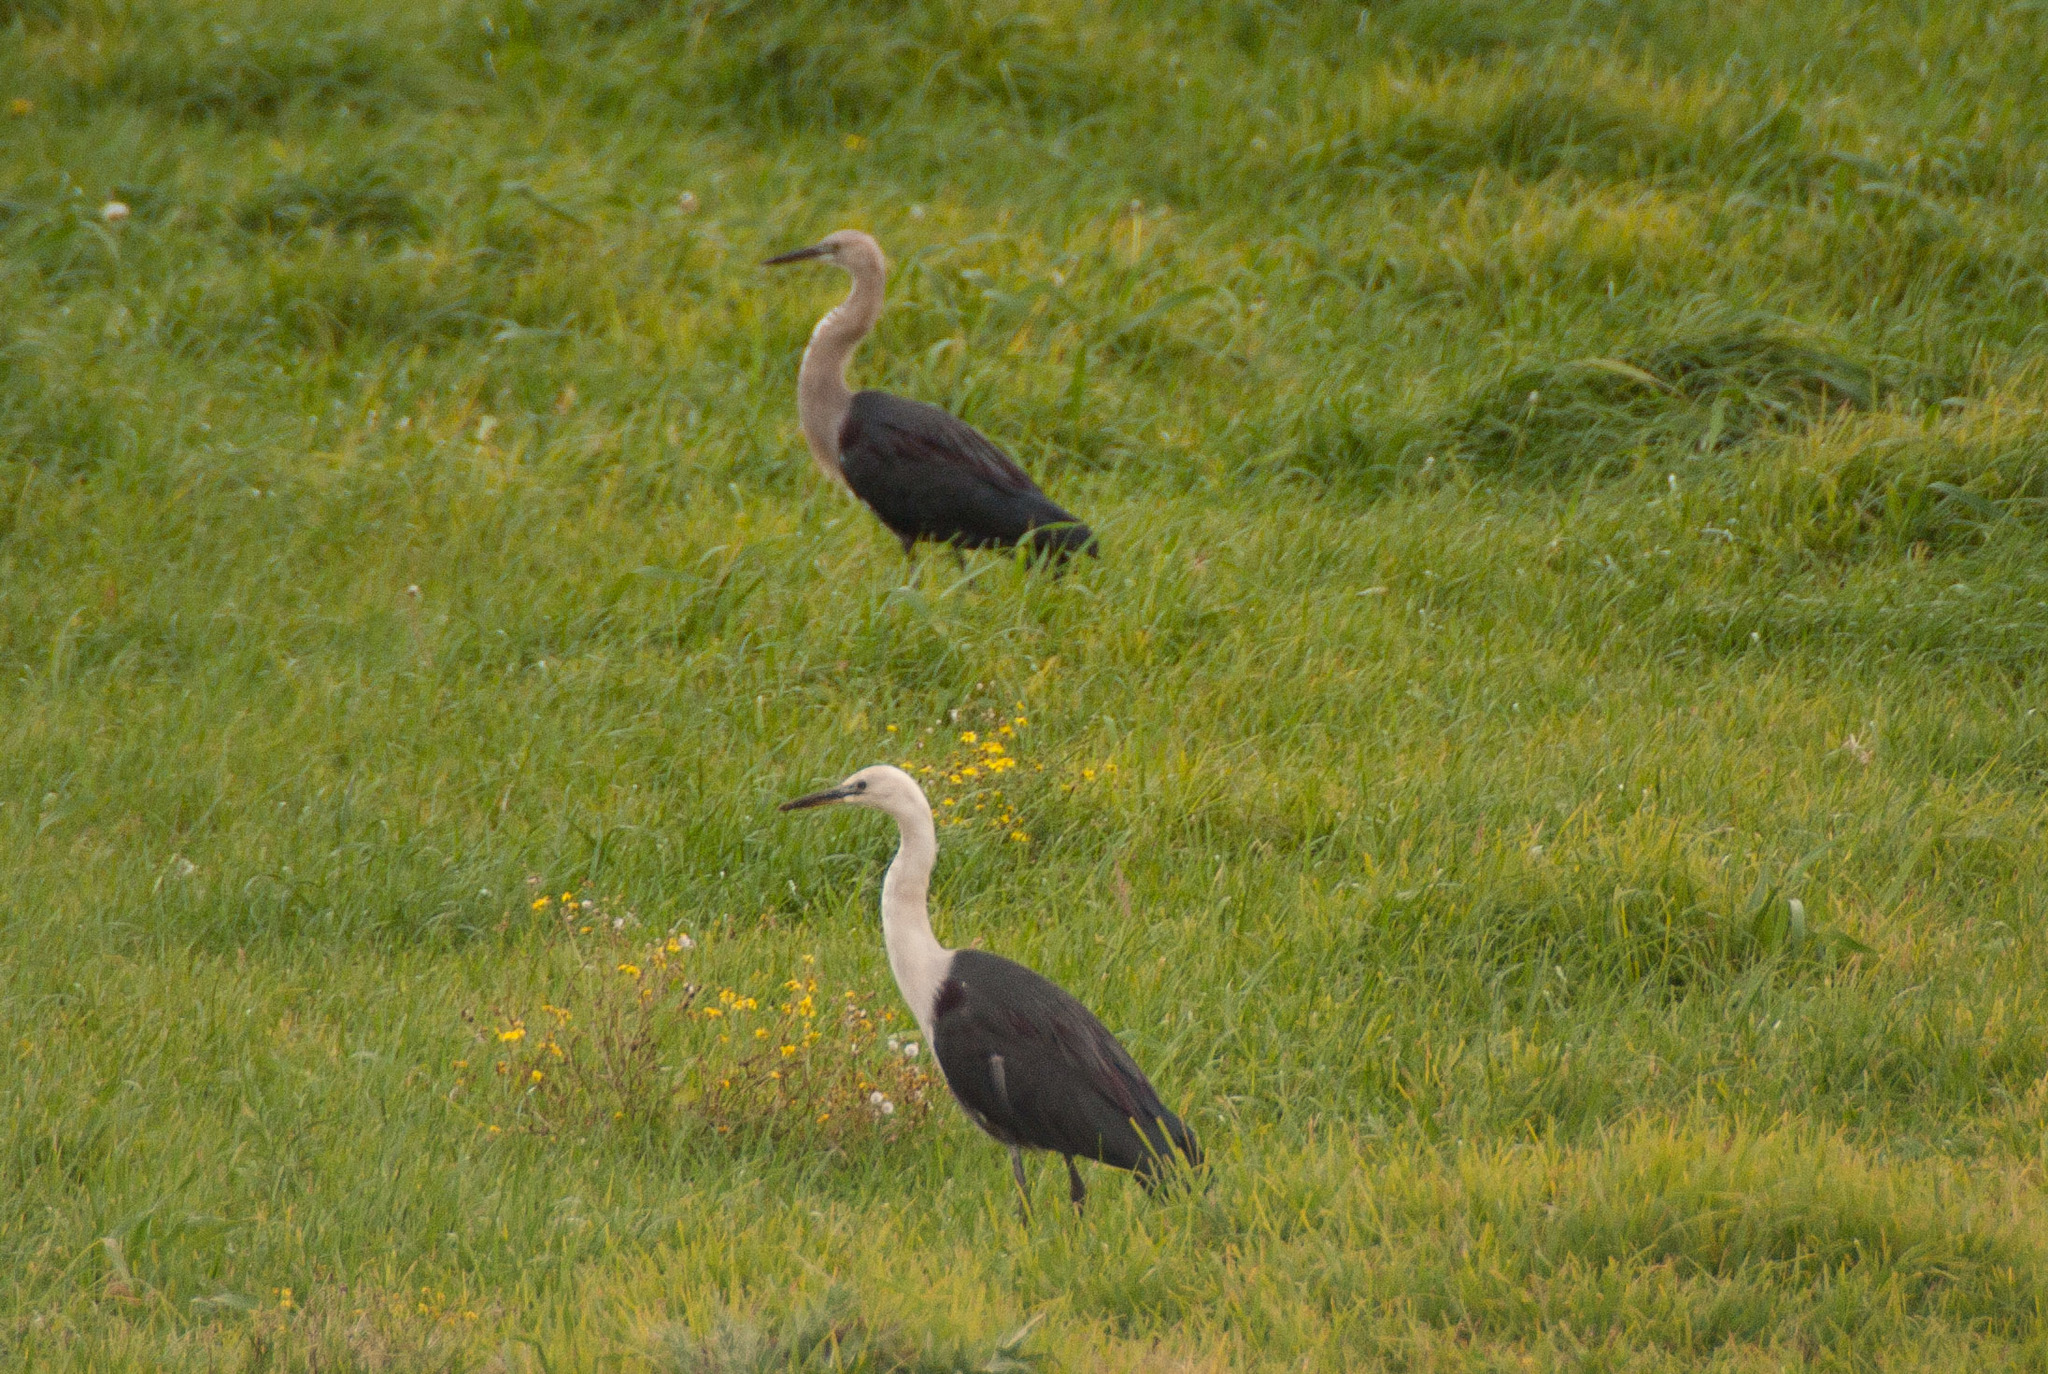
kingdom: Animalia
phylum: Chordata
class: Aves
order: Pelecaniformes
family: Ardeidae
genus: Ardea
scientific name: Ardea pacifica
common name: White-necked heron
